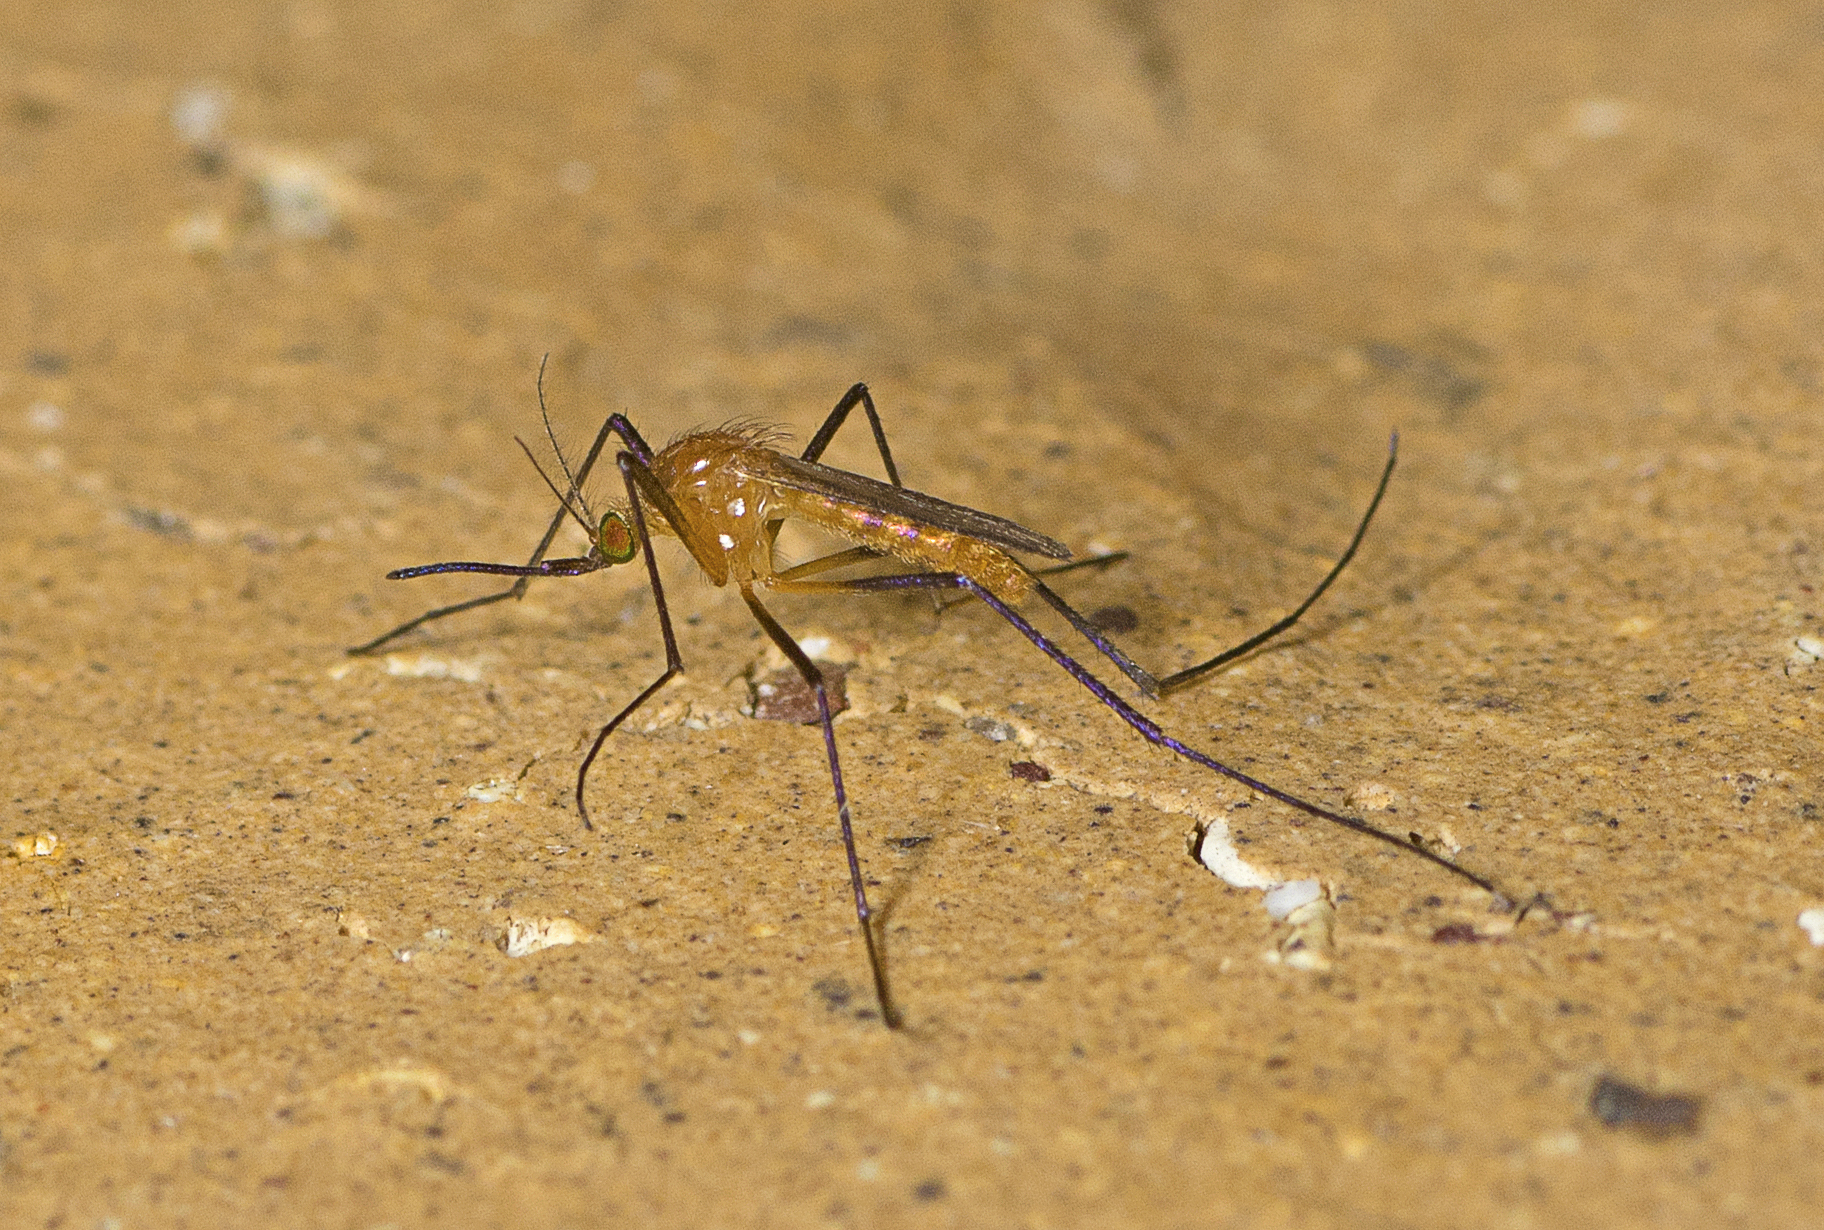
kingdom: Animalia
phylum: Arthropoda
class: Insecta
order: Diptera
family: Culicidae
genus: Coquillettidia
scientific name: Coquillettidia xanthogaster
